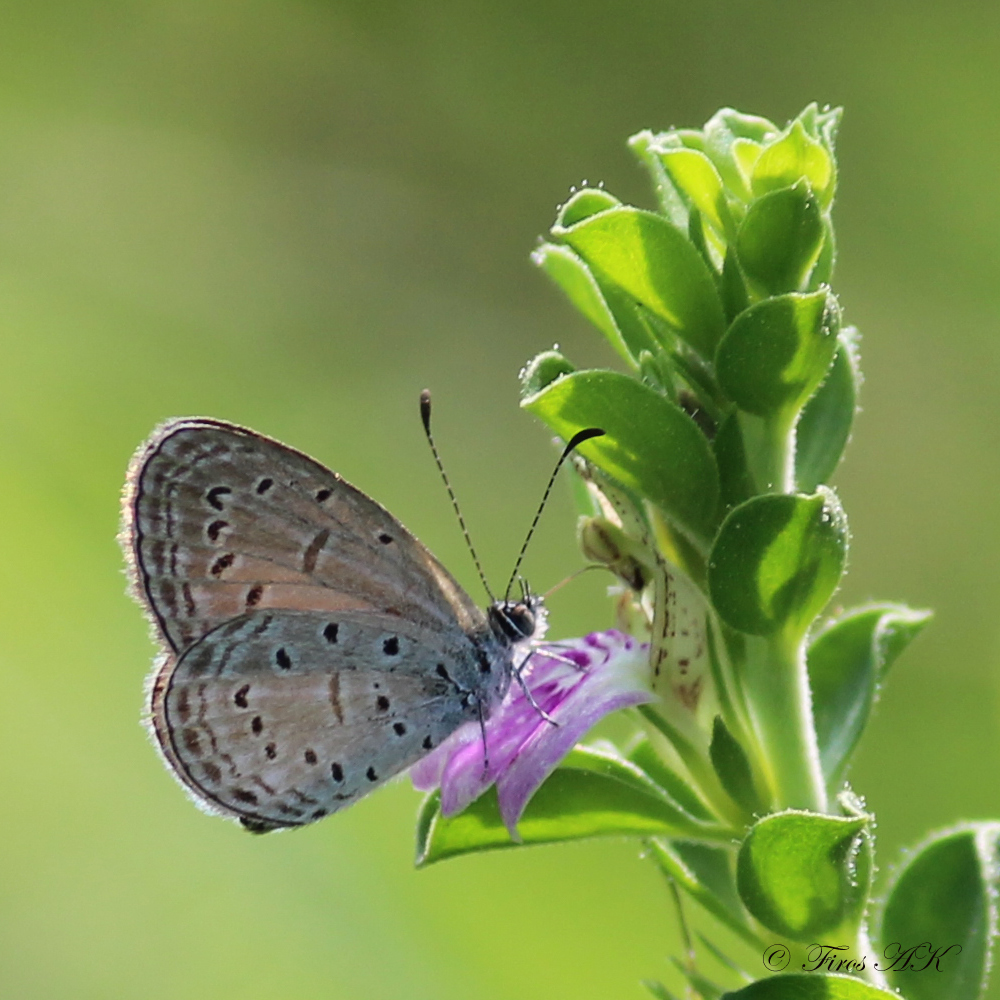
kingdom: Animalia
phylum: Arthropoda
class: Insecta
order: Lepidoptera
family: Lycaenidae
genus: Zizula
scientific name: Zizula hylax
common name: Gaika blue
